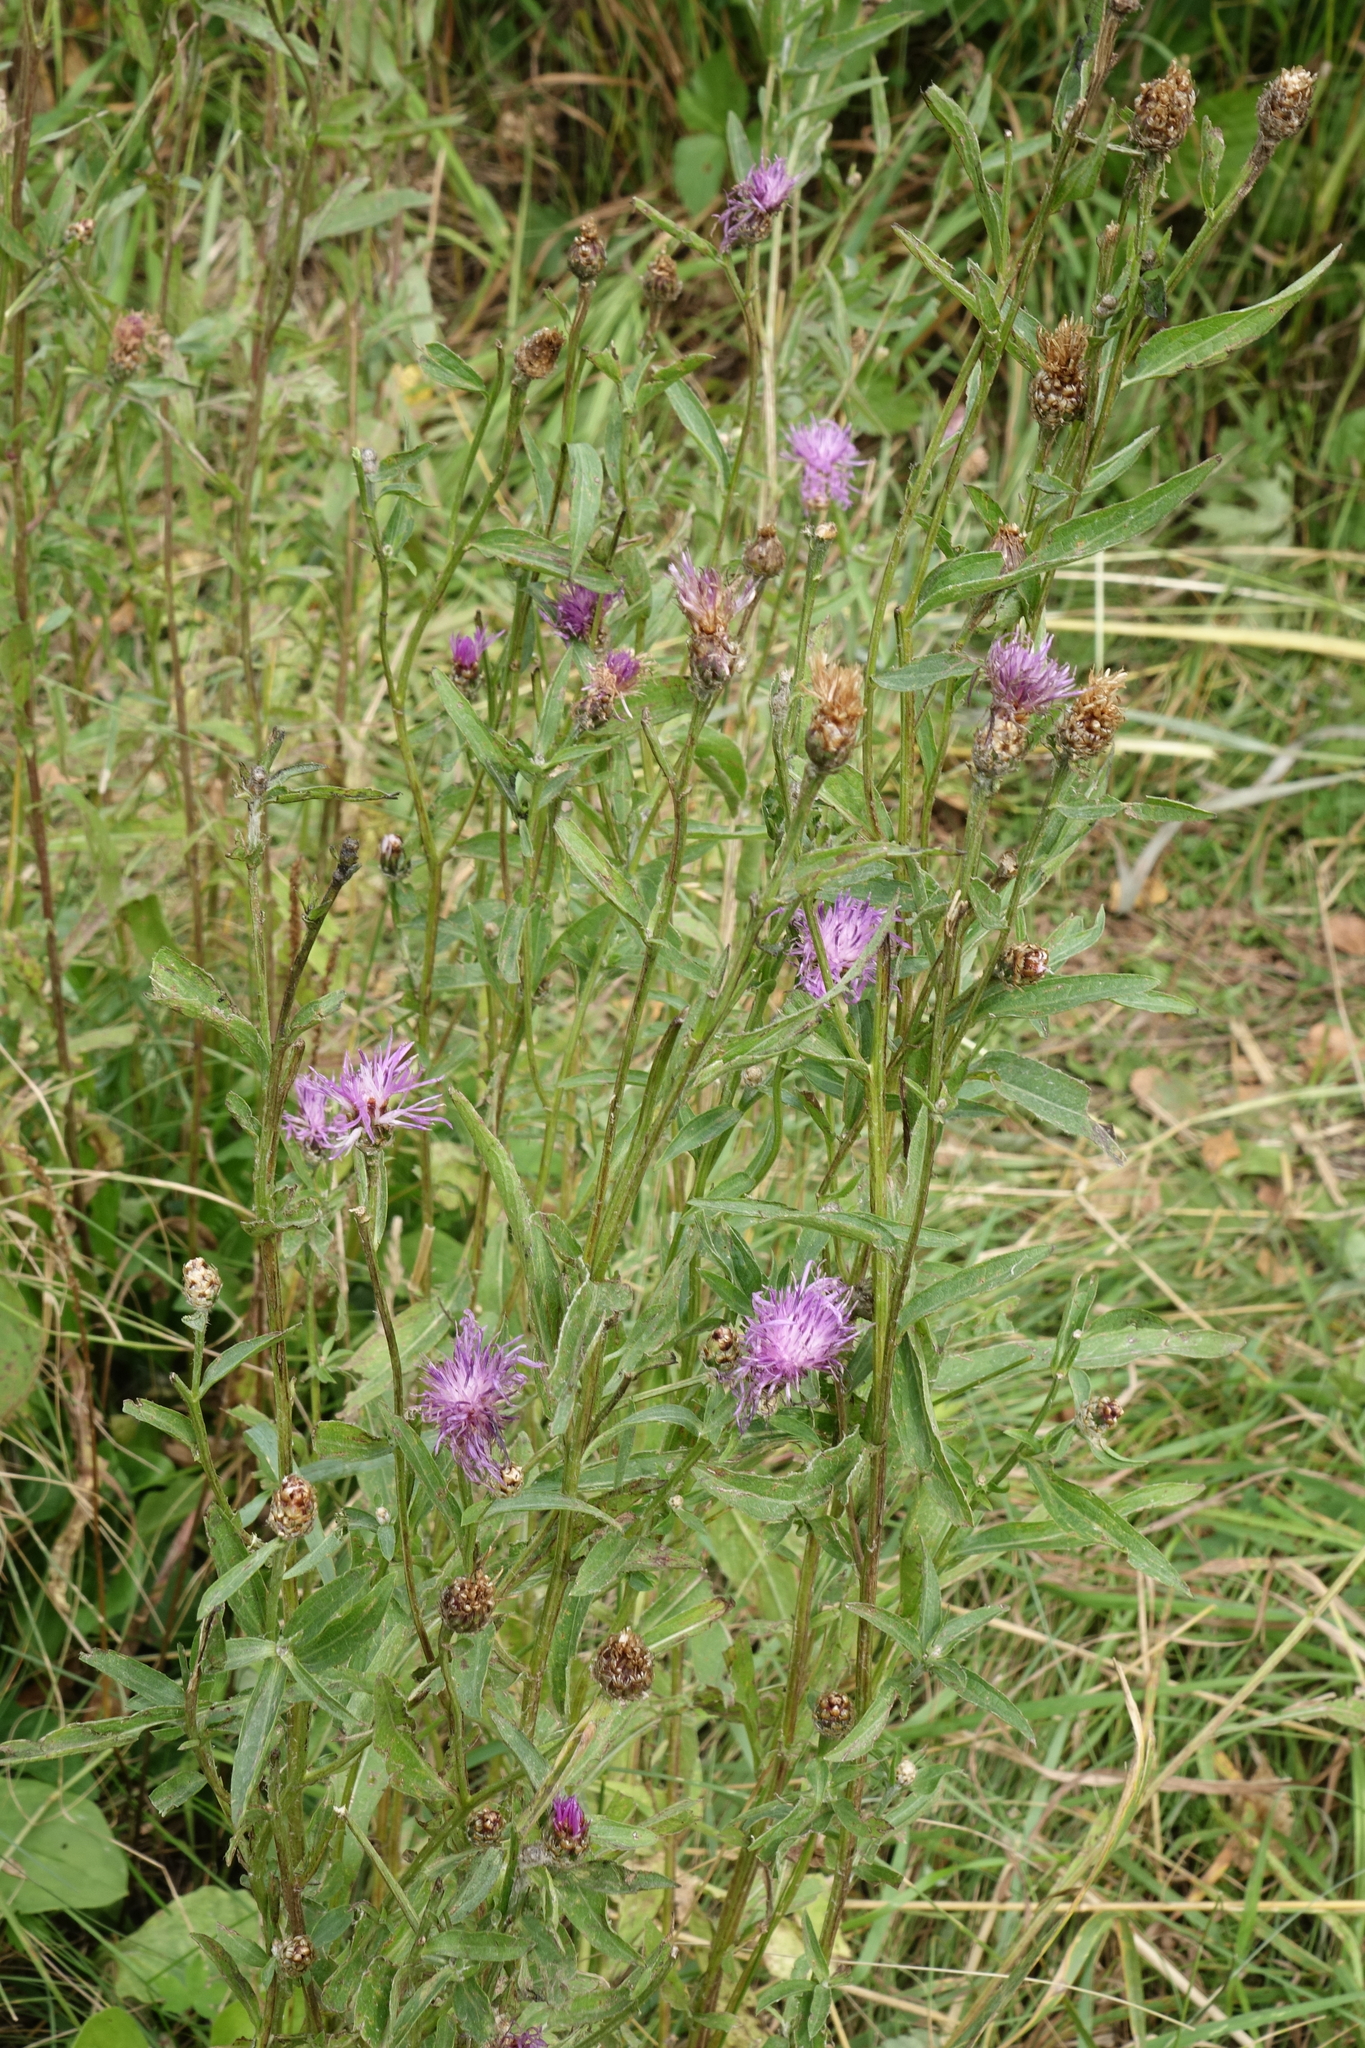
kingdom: Plantae
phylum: Tracheophyta
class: Magnoliopsida
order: Asterales
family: Asteraceae
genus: Centaurea
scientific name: Centaurea jacea
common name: Brown knapweed
